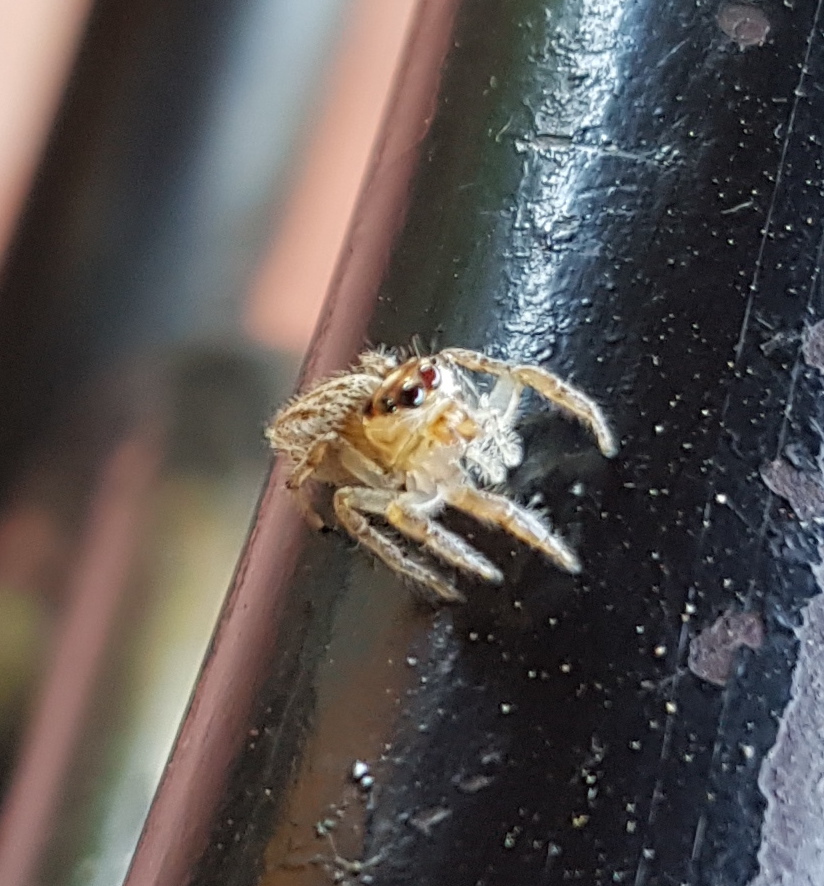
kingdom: Animalia
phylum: Arthropoda
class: Arachnida
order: Araneae
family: Salticidae
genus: Colonus
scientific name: Colonus sylvanus
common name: Jumping spiders
